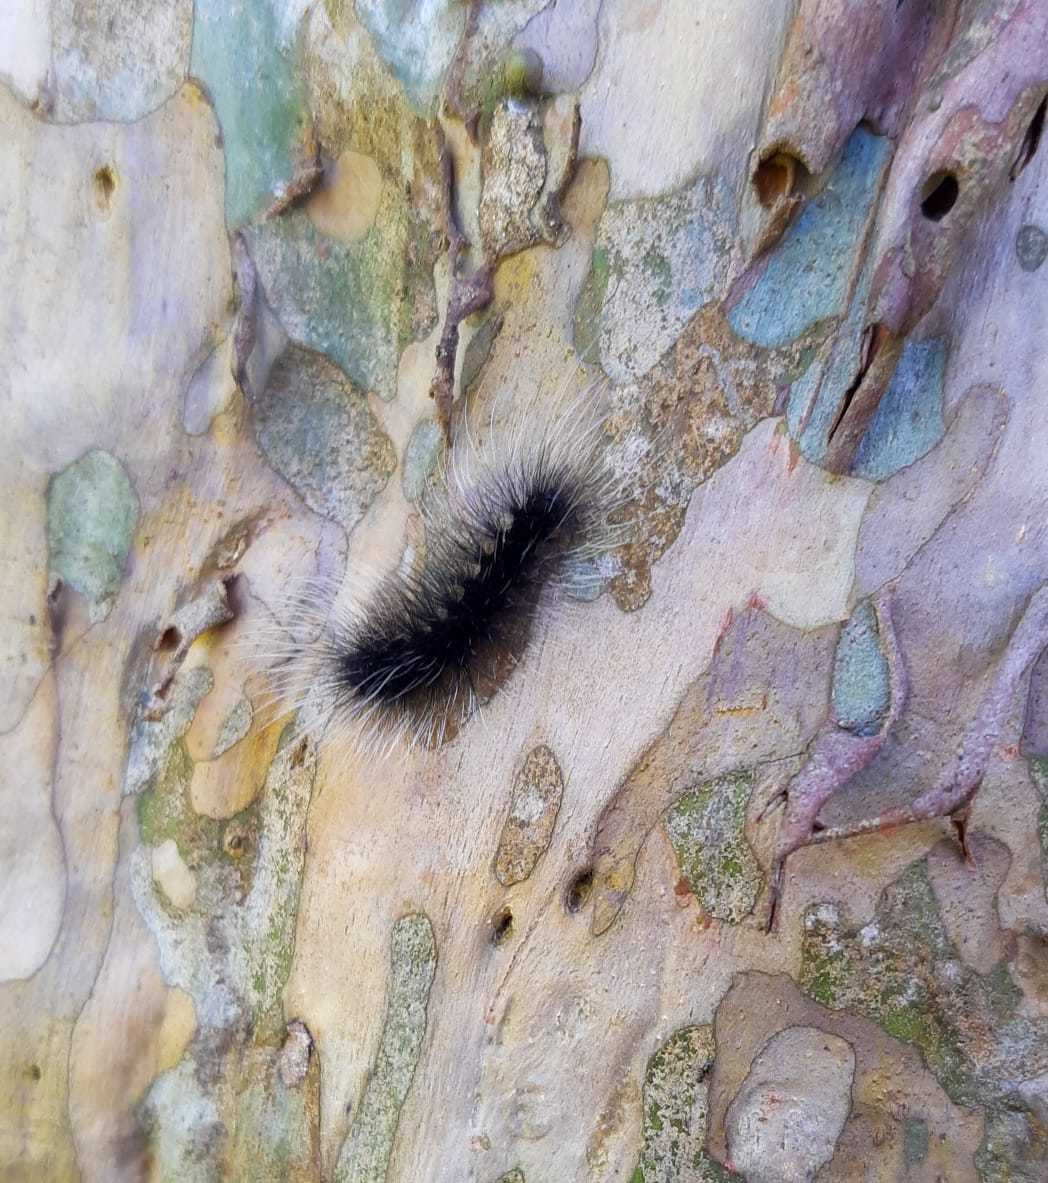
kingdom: Animalia
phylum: Arthropoda
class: Insecta
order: Lepidoptera
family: Erebidae
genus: Apistosia
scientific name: Apistosia judas
